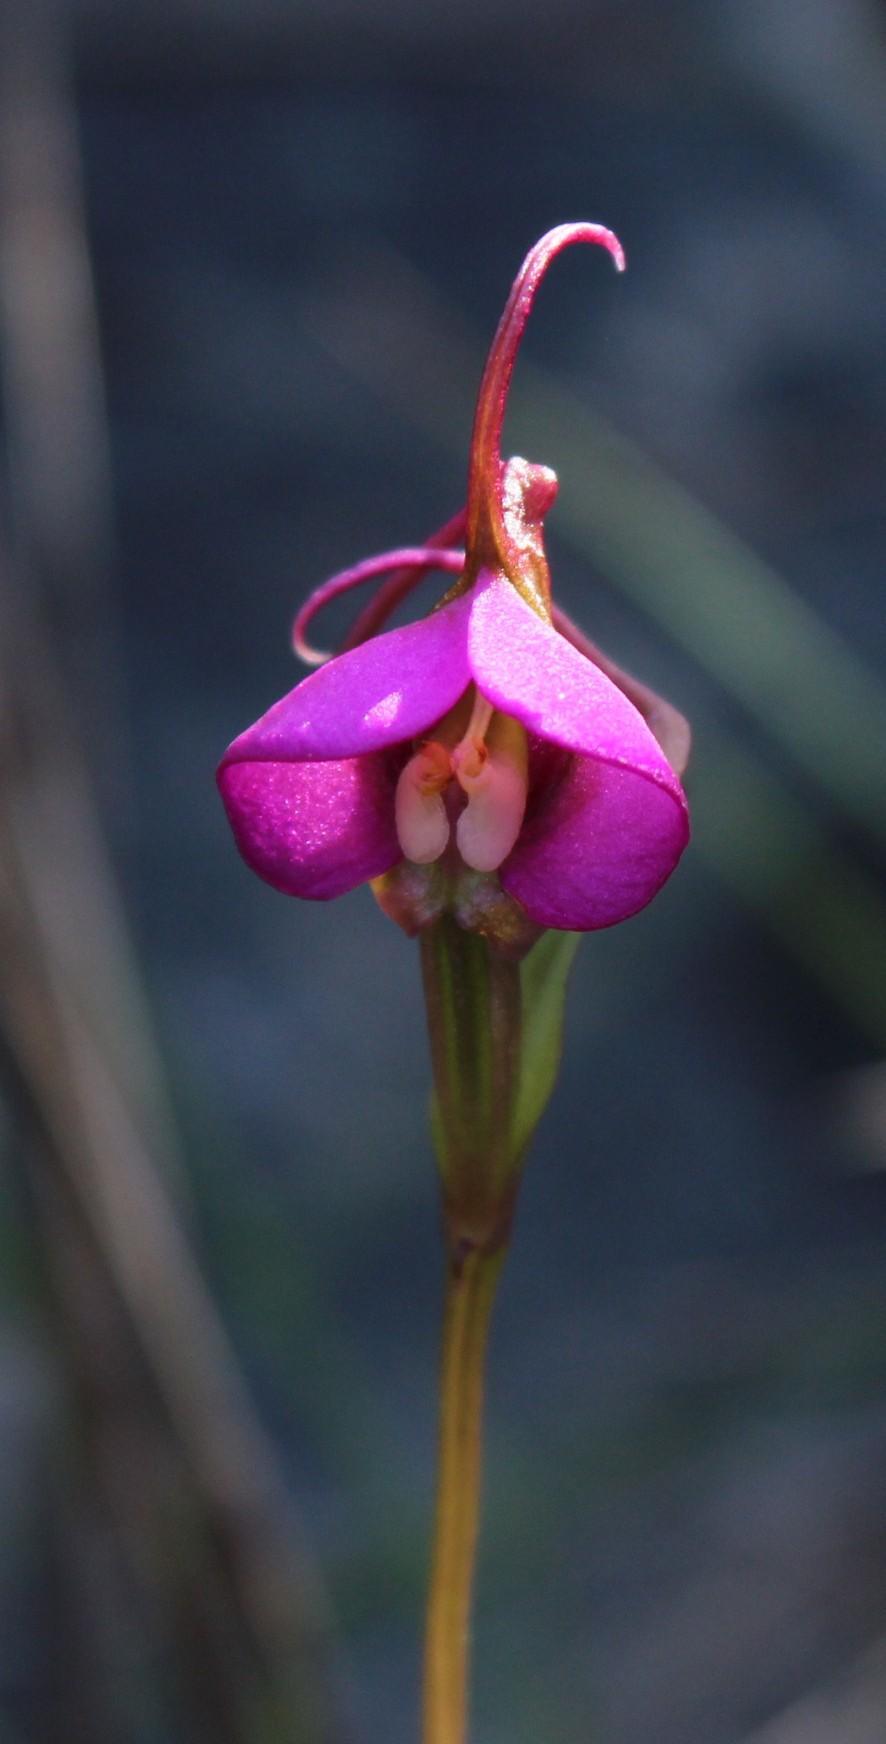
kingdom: Plantae
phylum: Tracheophyta
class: Liliopsida
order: Asparagales
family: Orchidaceae
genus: Disperis
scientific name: Disperis capensis
